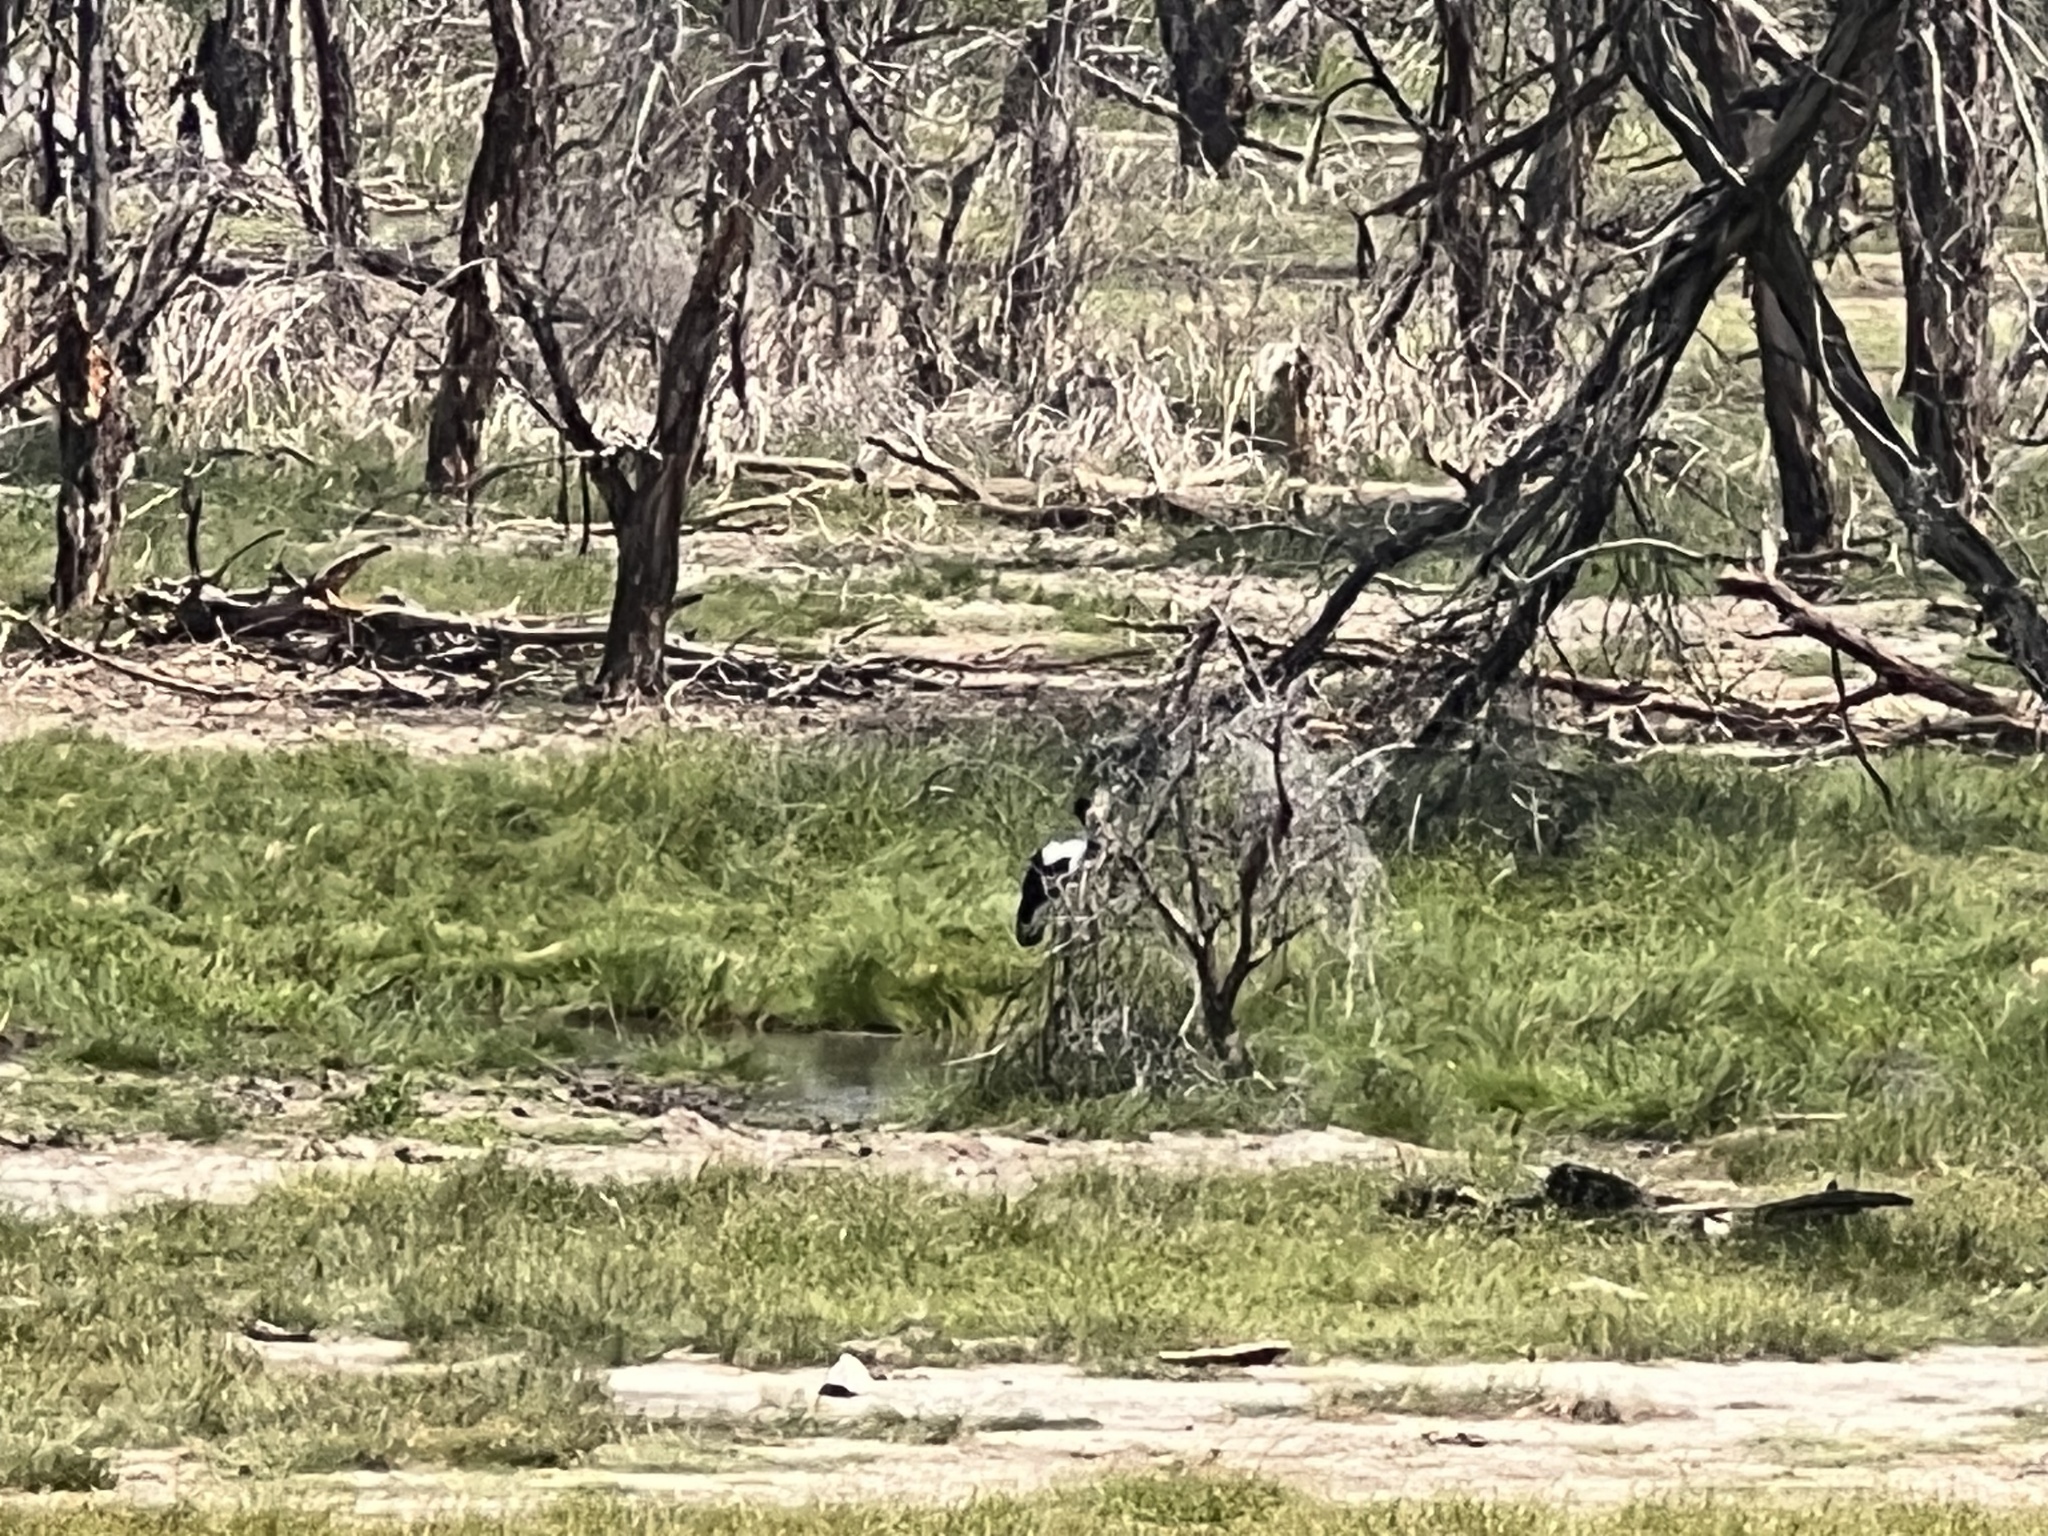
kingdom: Animalia
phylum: Chordata
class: Aves
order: Ciconiiformes
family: Ciconiidae
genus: Ephippiorhynchus
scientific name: Ephippiorhynchus senegalensis
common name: Saddle-billed stork
